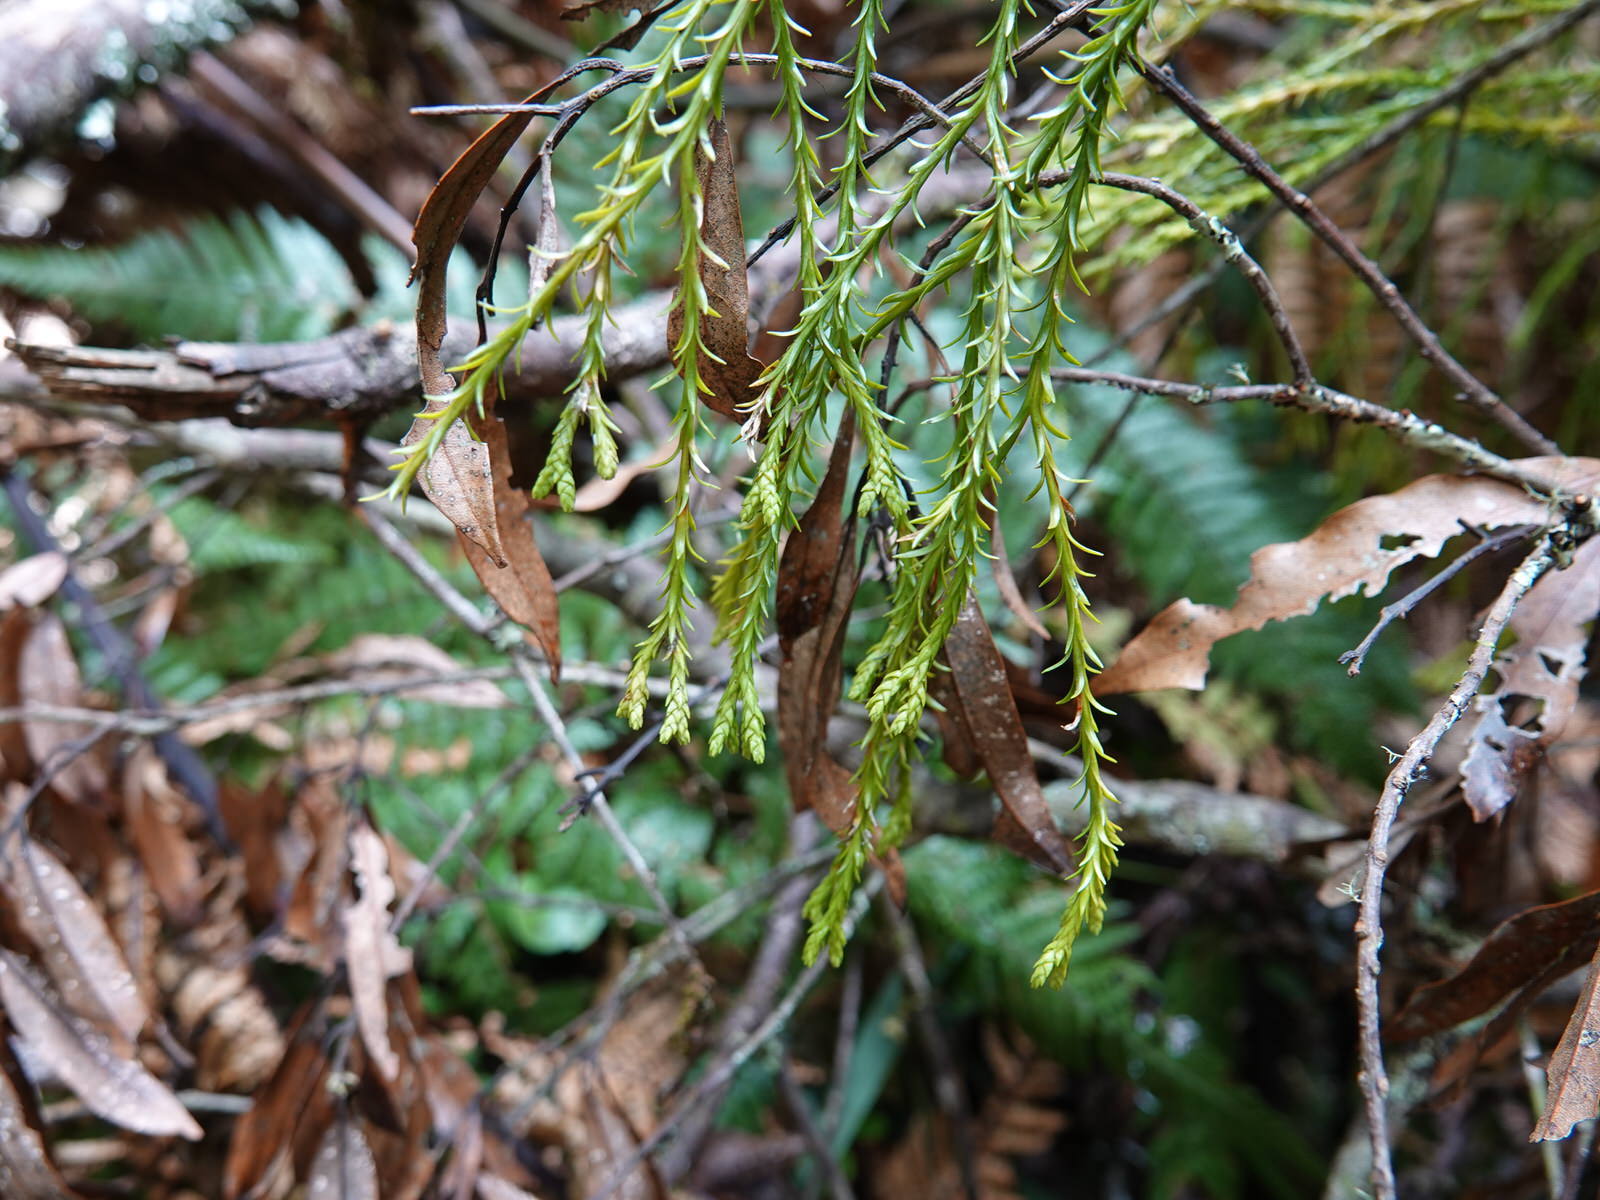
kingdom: Plantae
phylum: Tracheophyta
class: Lycopodiopsida
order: Lycopodiales
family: Lycopodiaceae
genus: Phlegmariurus
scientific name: Phlegmariurus varius
